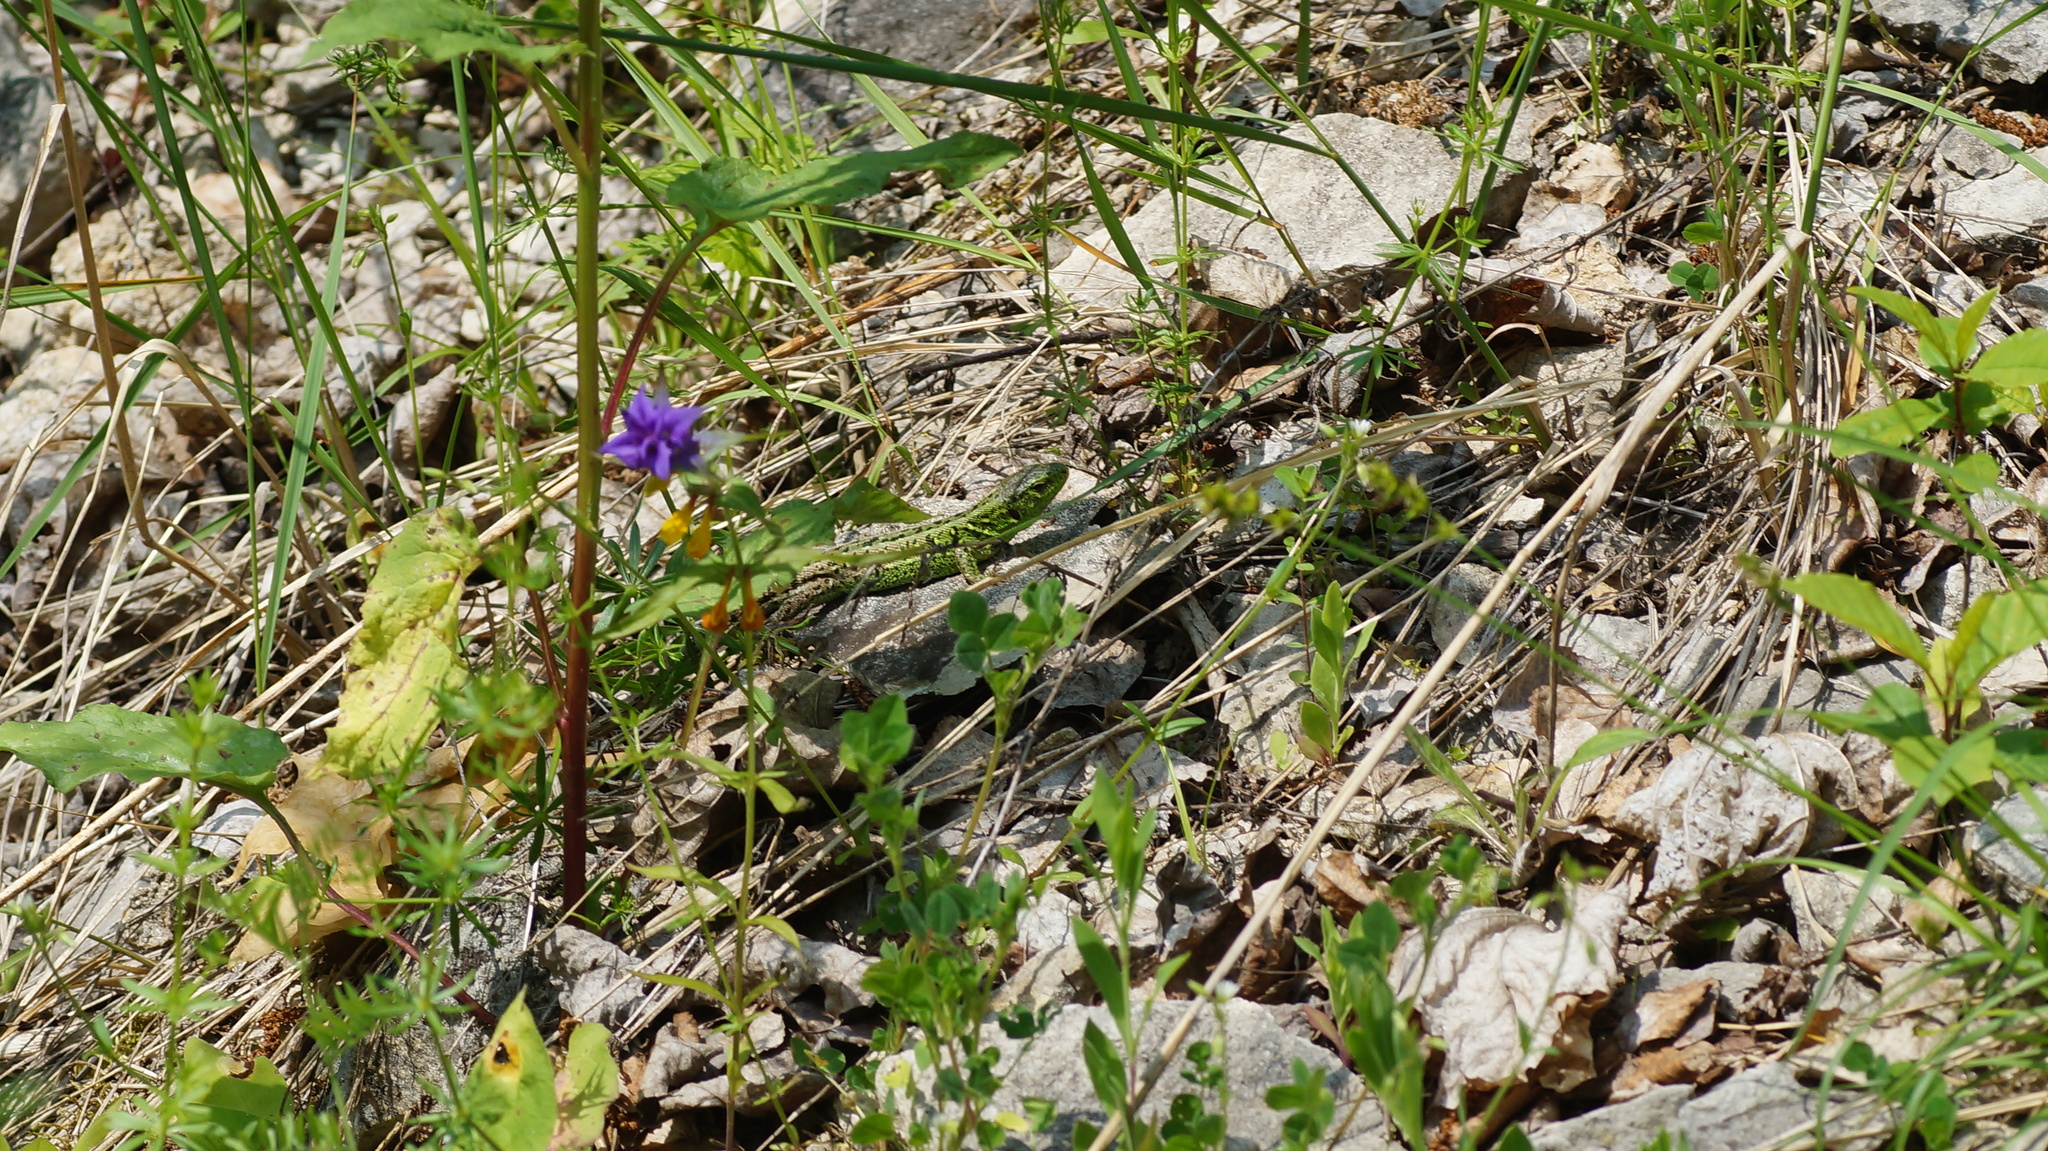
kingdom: Animalia
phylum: Chordata
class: Squamata
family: Lacertidae
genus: Lacerta
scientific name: Lacerta agilis
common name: Sand lizard
